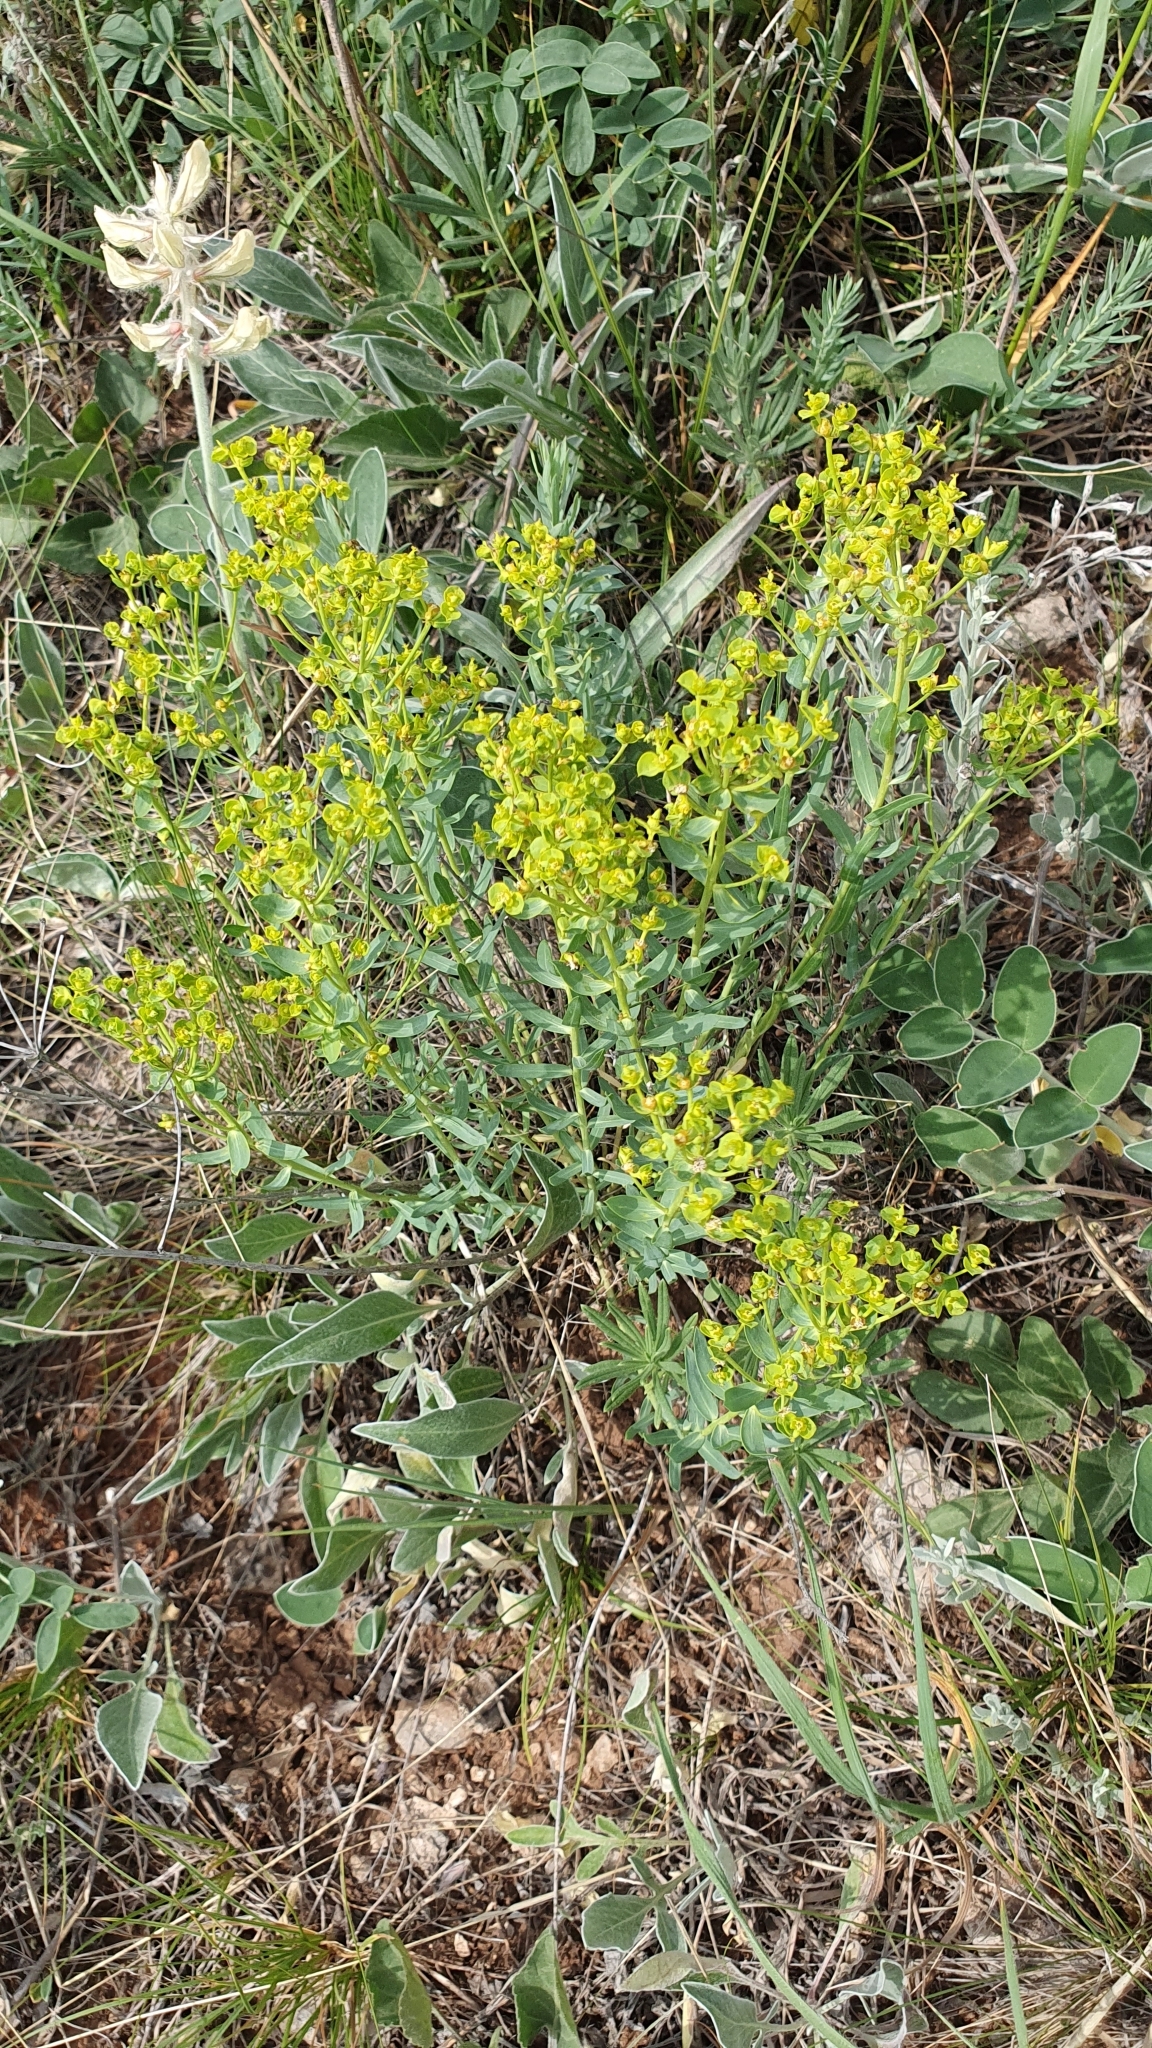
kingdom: Plantae
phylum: Tracheophyta
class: Magnoliopsida
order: Malpighiales
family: Euphorbiaceae
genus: Euphorbia
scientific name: Euphorbia seguieriana
